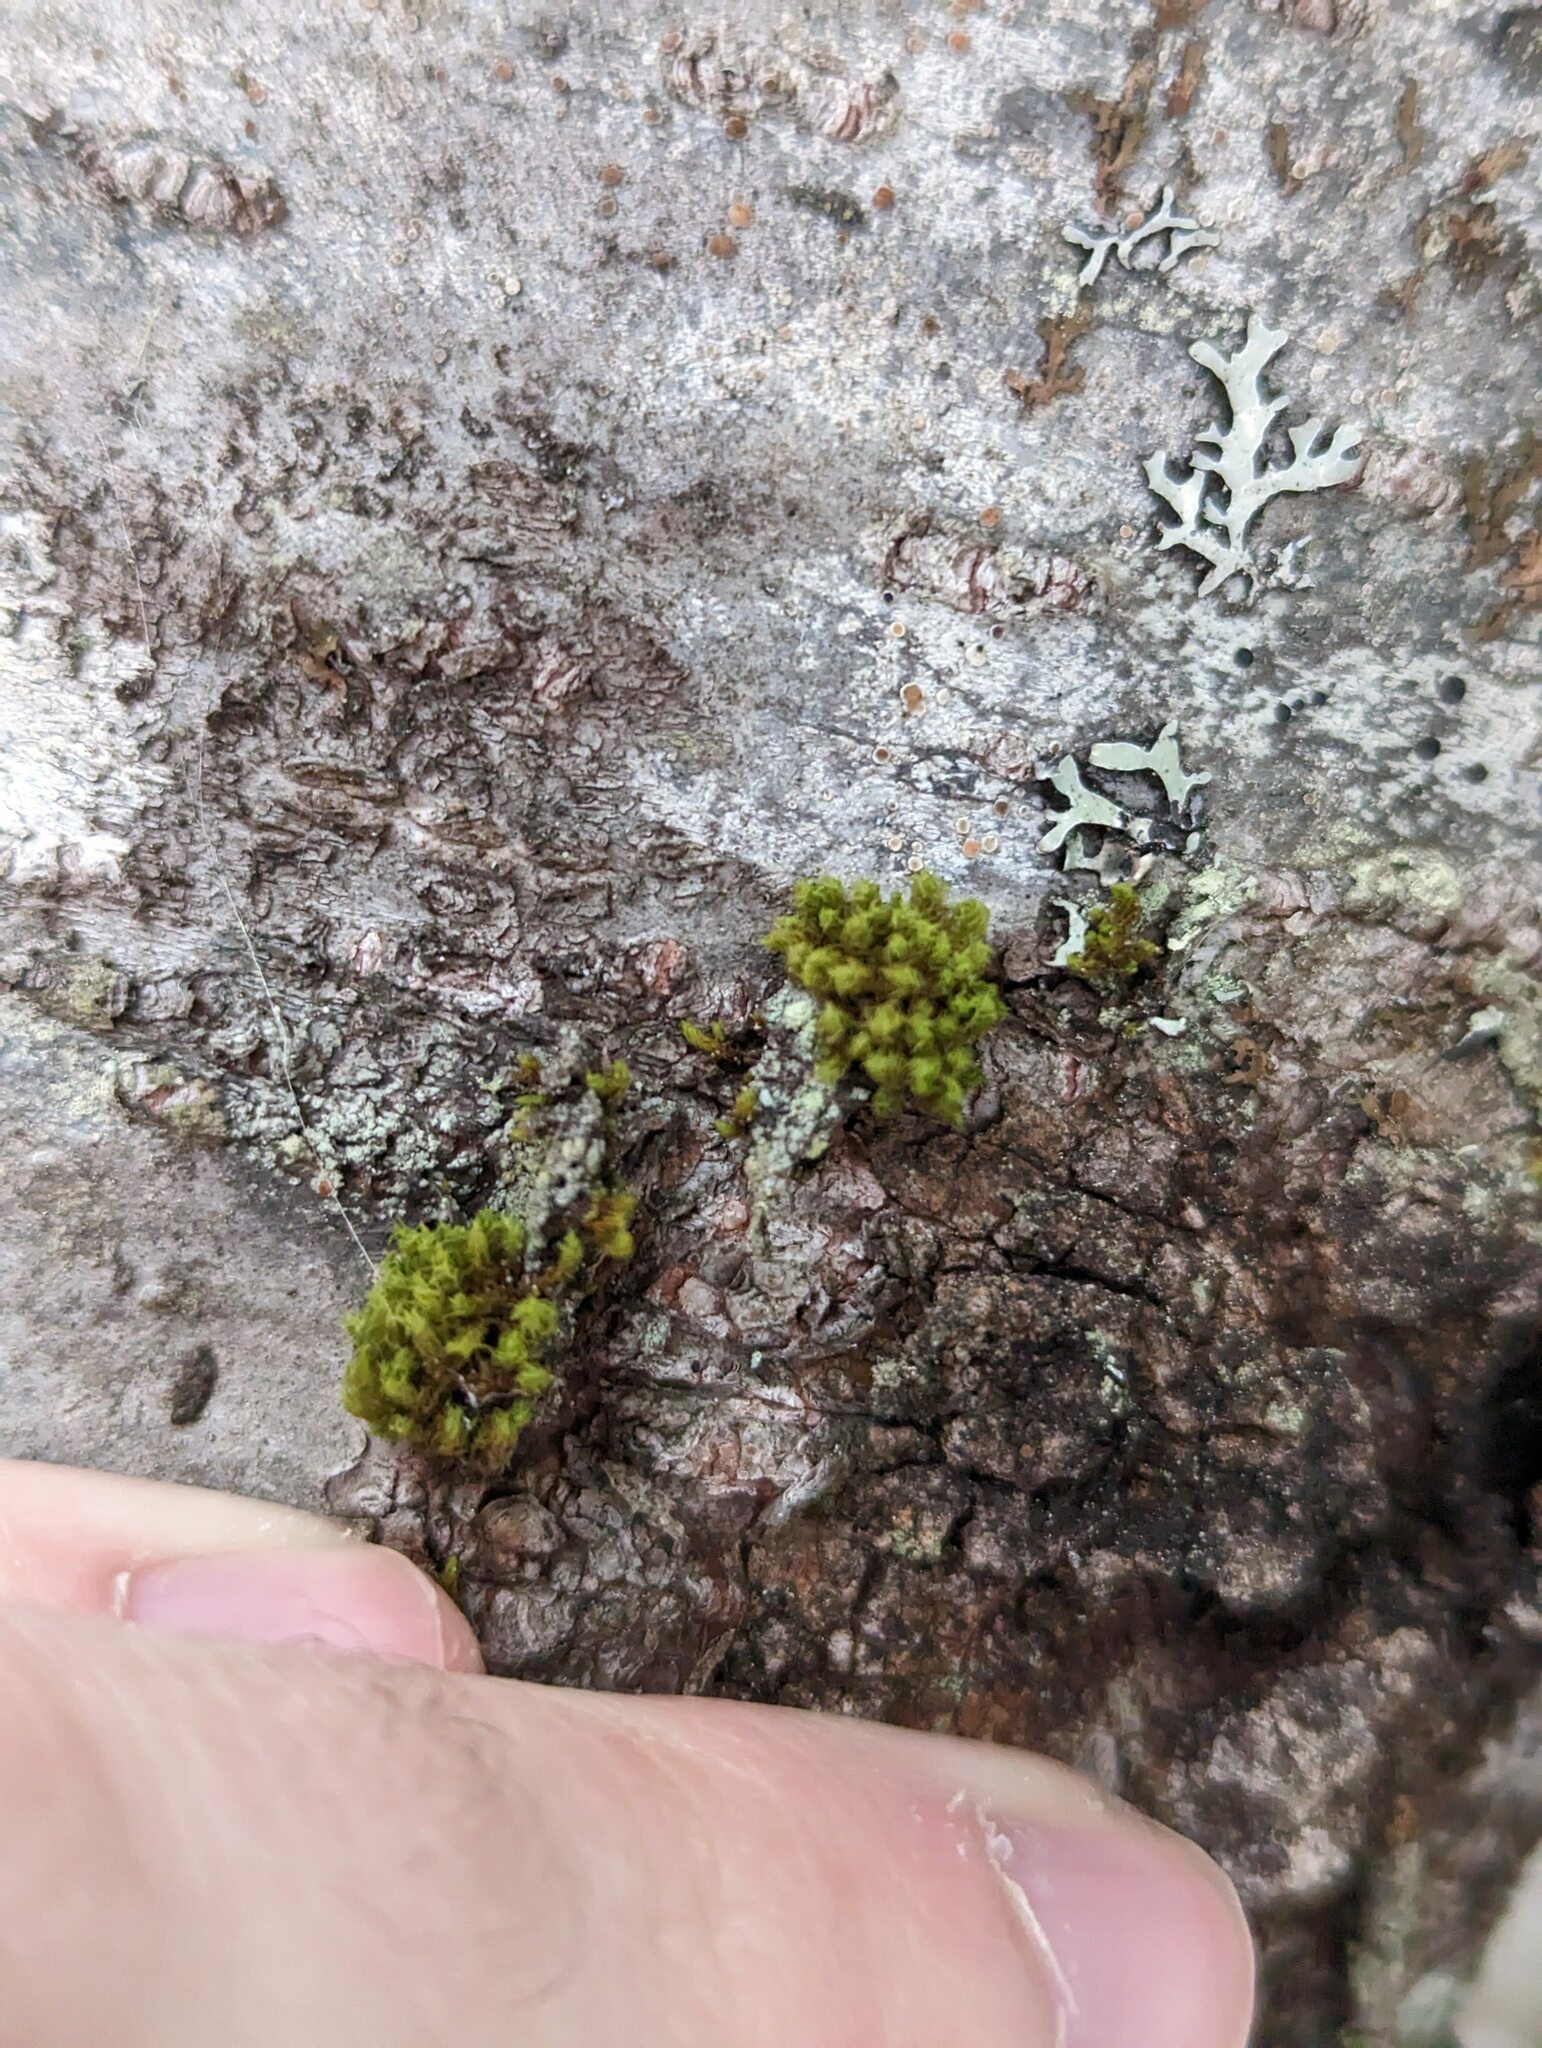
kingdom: Plantae
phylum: Bryophyta
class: Bryopsida
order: Orthotrichales
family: Orthotrichaceae
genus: Ulota
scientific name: Ulota crispa
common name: Crisped pincushion moss
